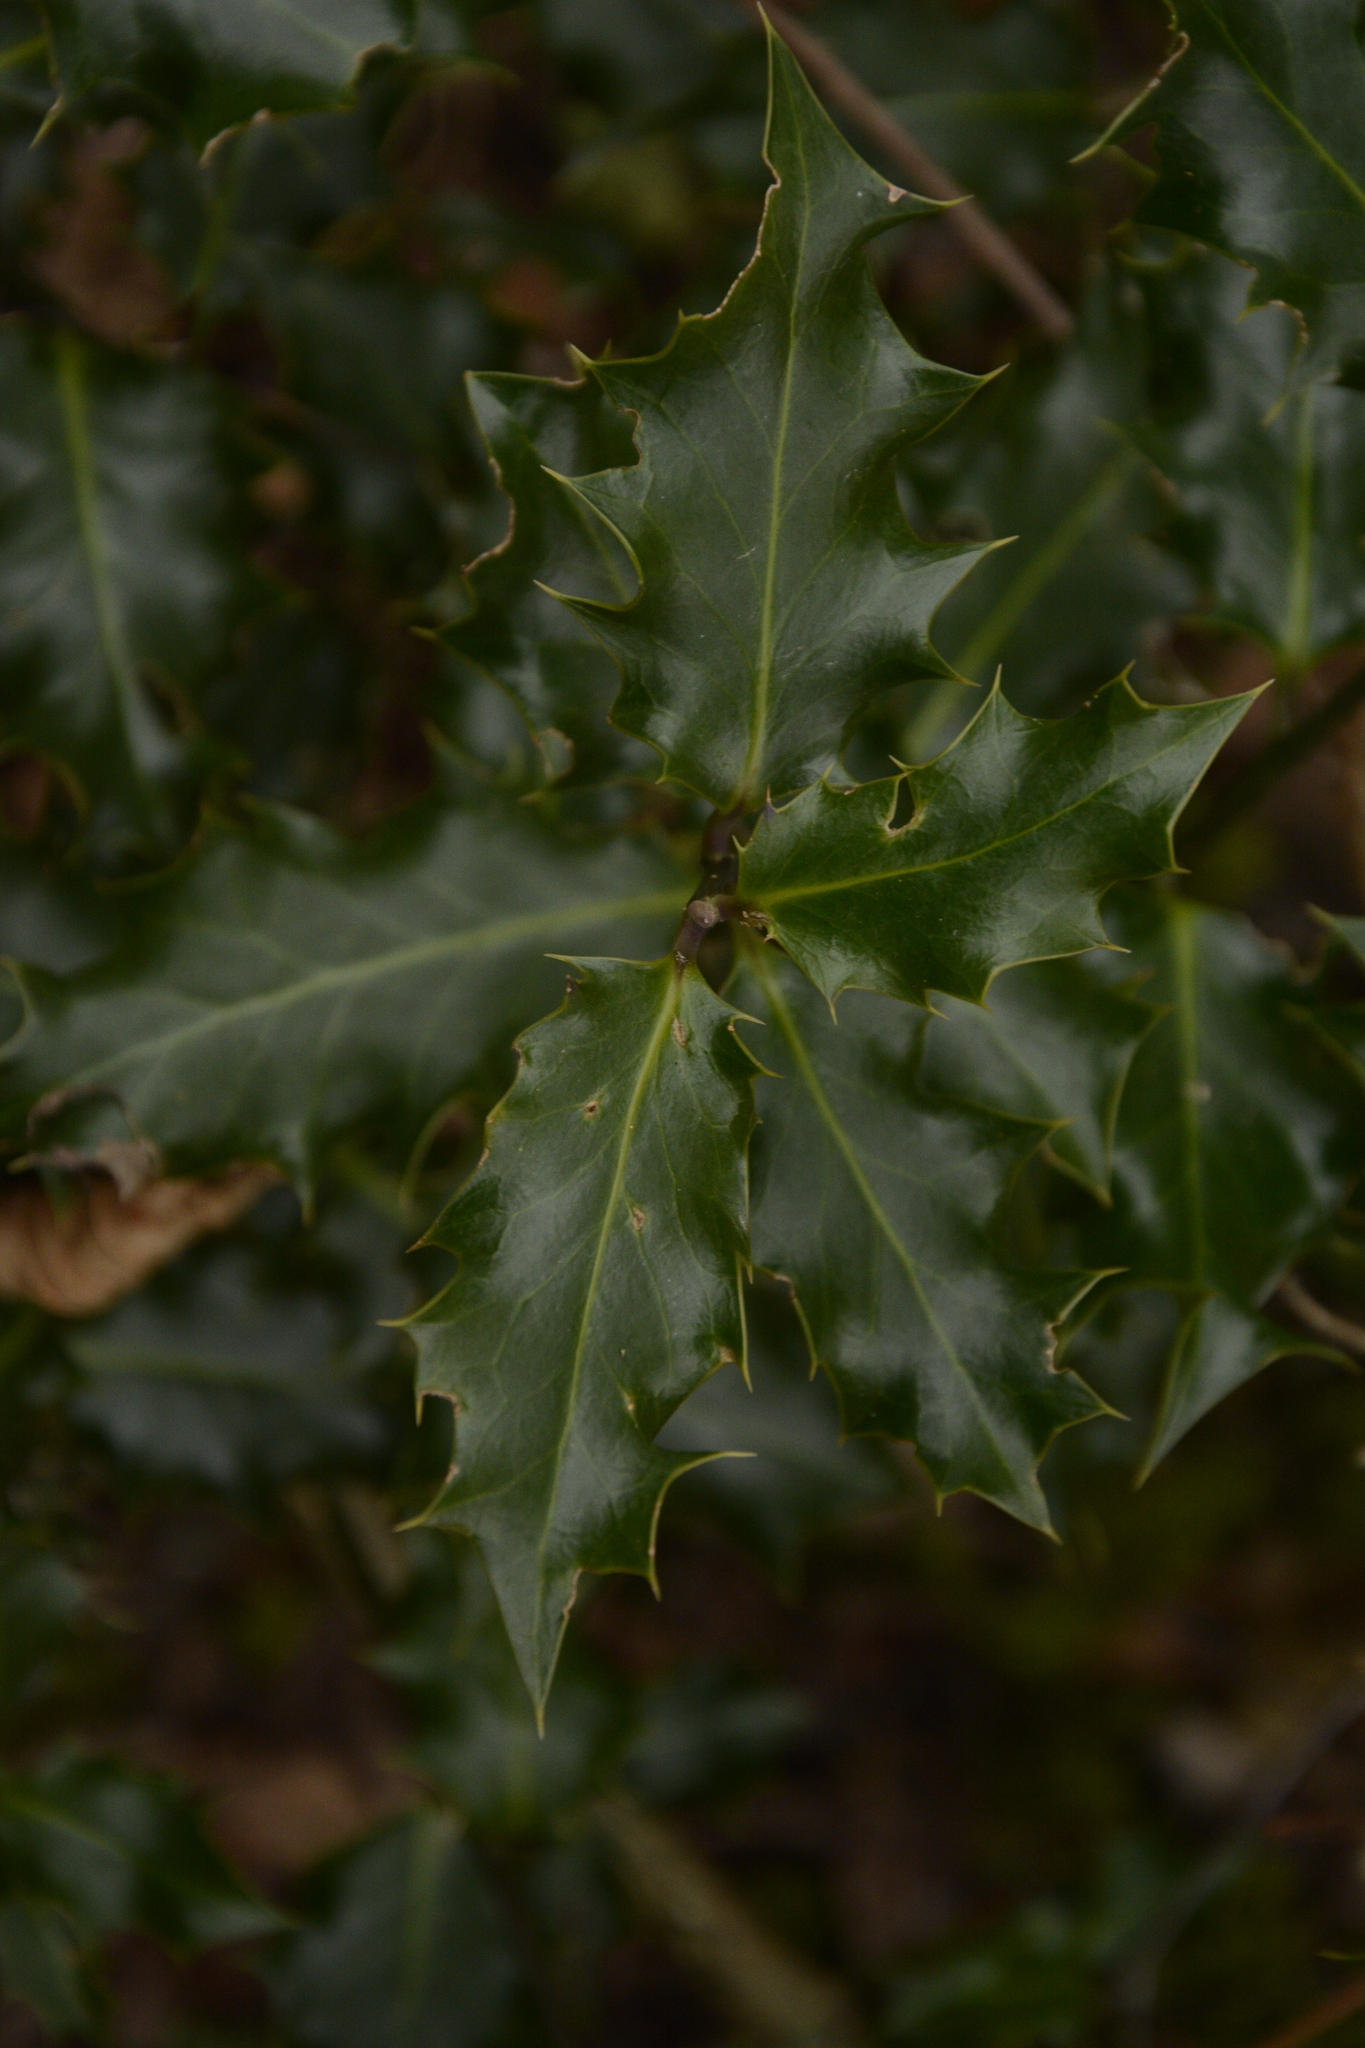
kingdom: Plantae
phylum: Tracheophyta
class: Magnoliopsida
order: Aquifoliales
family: Aquifoliaceae
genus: Ilex
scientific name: Ilex aquifolium
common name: English holly
